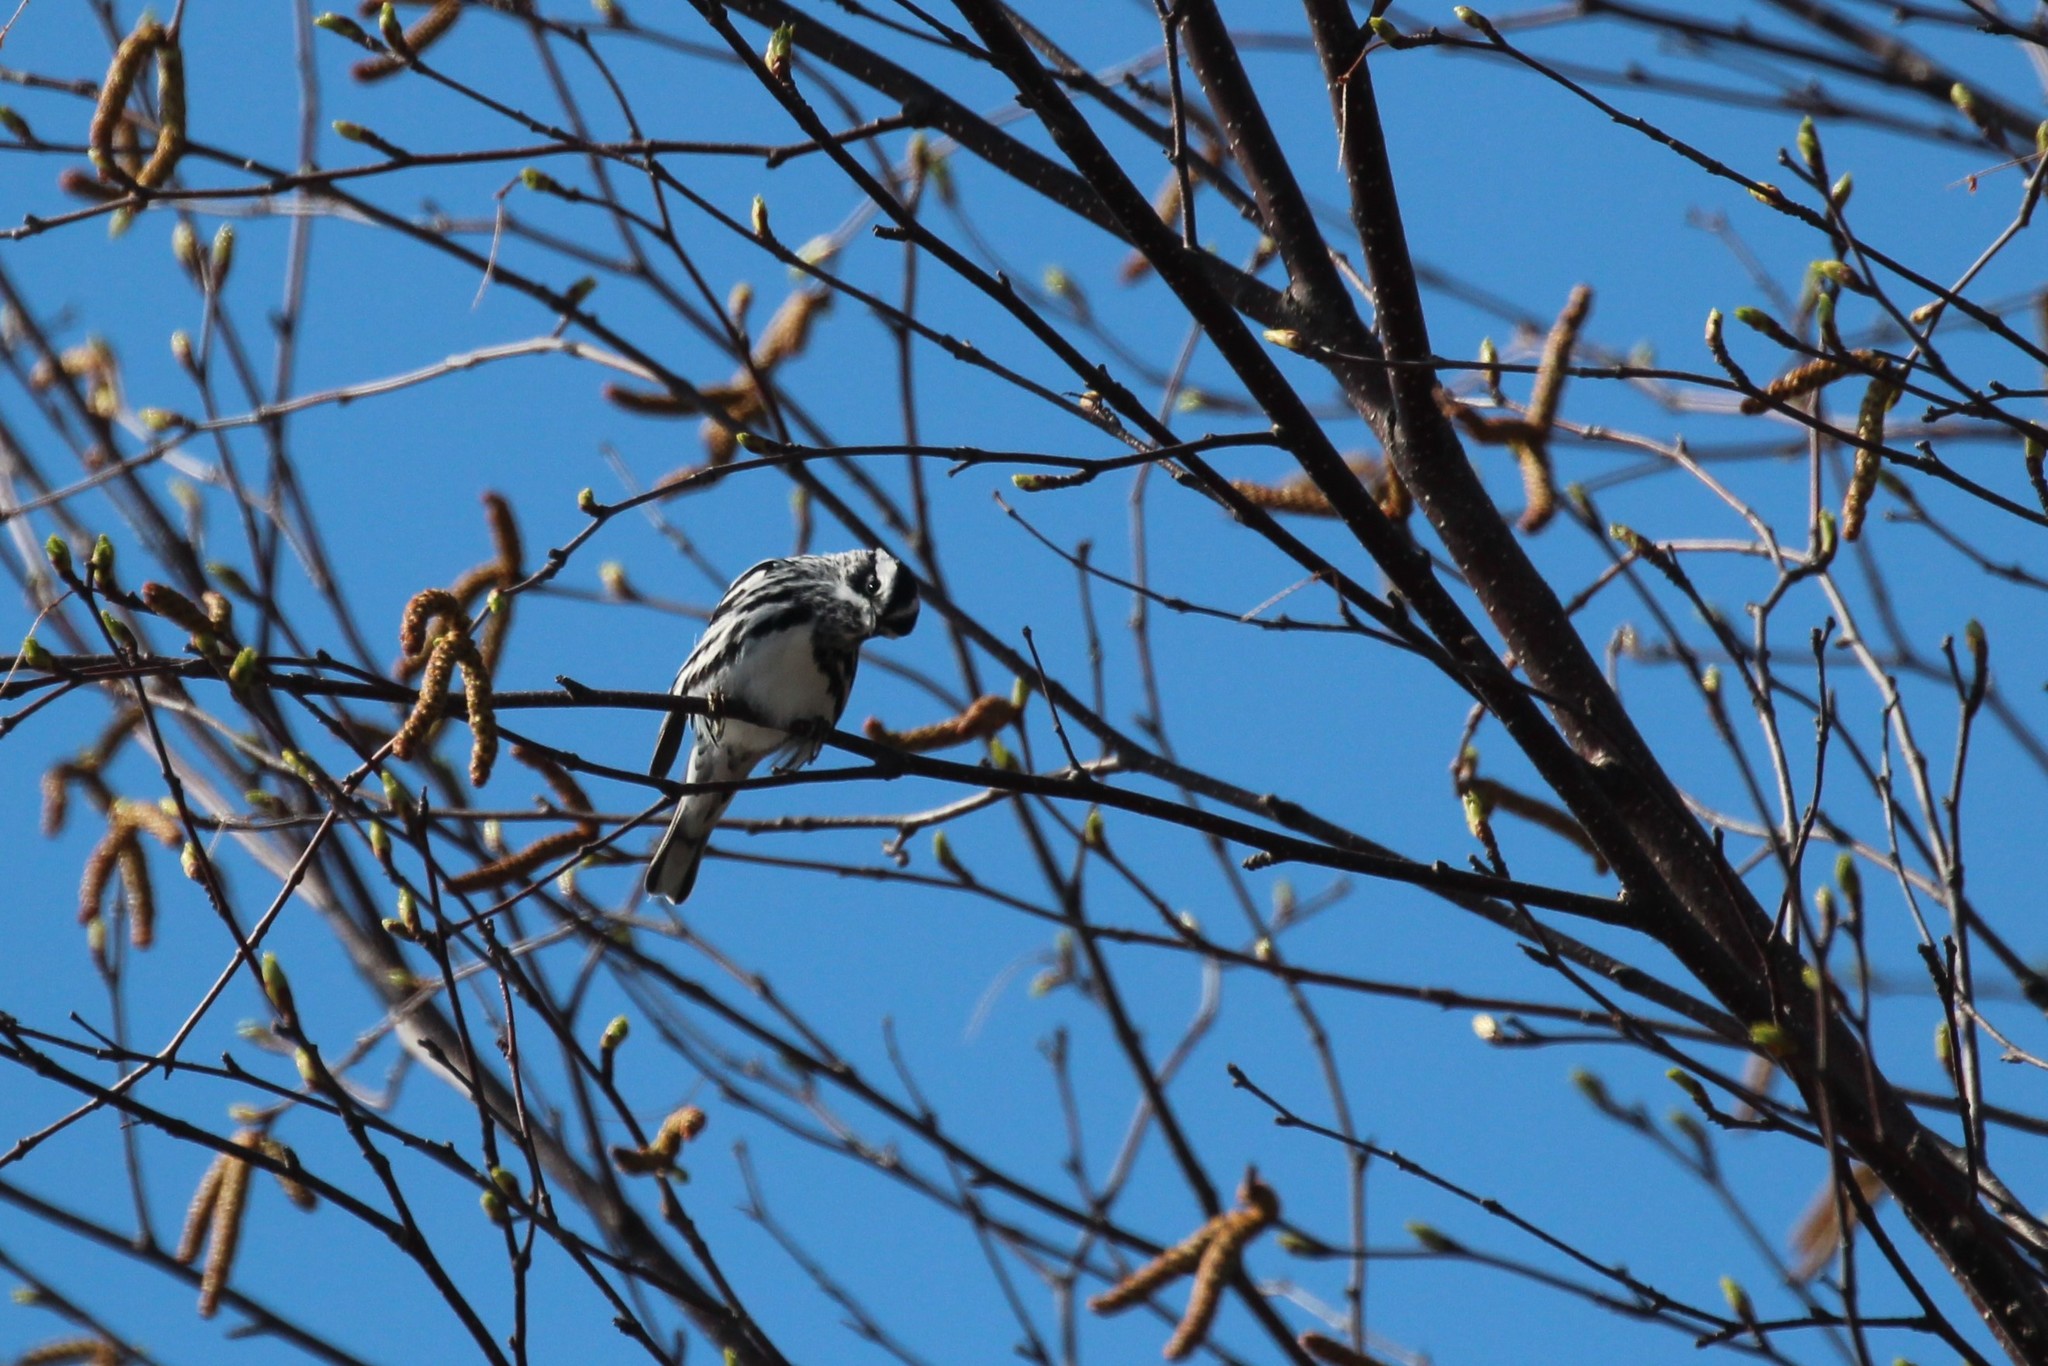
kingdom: Animalia
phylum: Chordata
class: Aves
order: Passeriformes
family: Parulidae
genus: Mniotilta
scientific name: Mniotilta varia
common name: Black-and-white warbler
